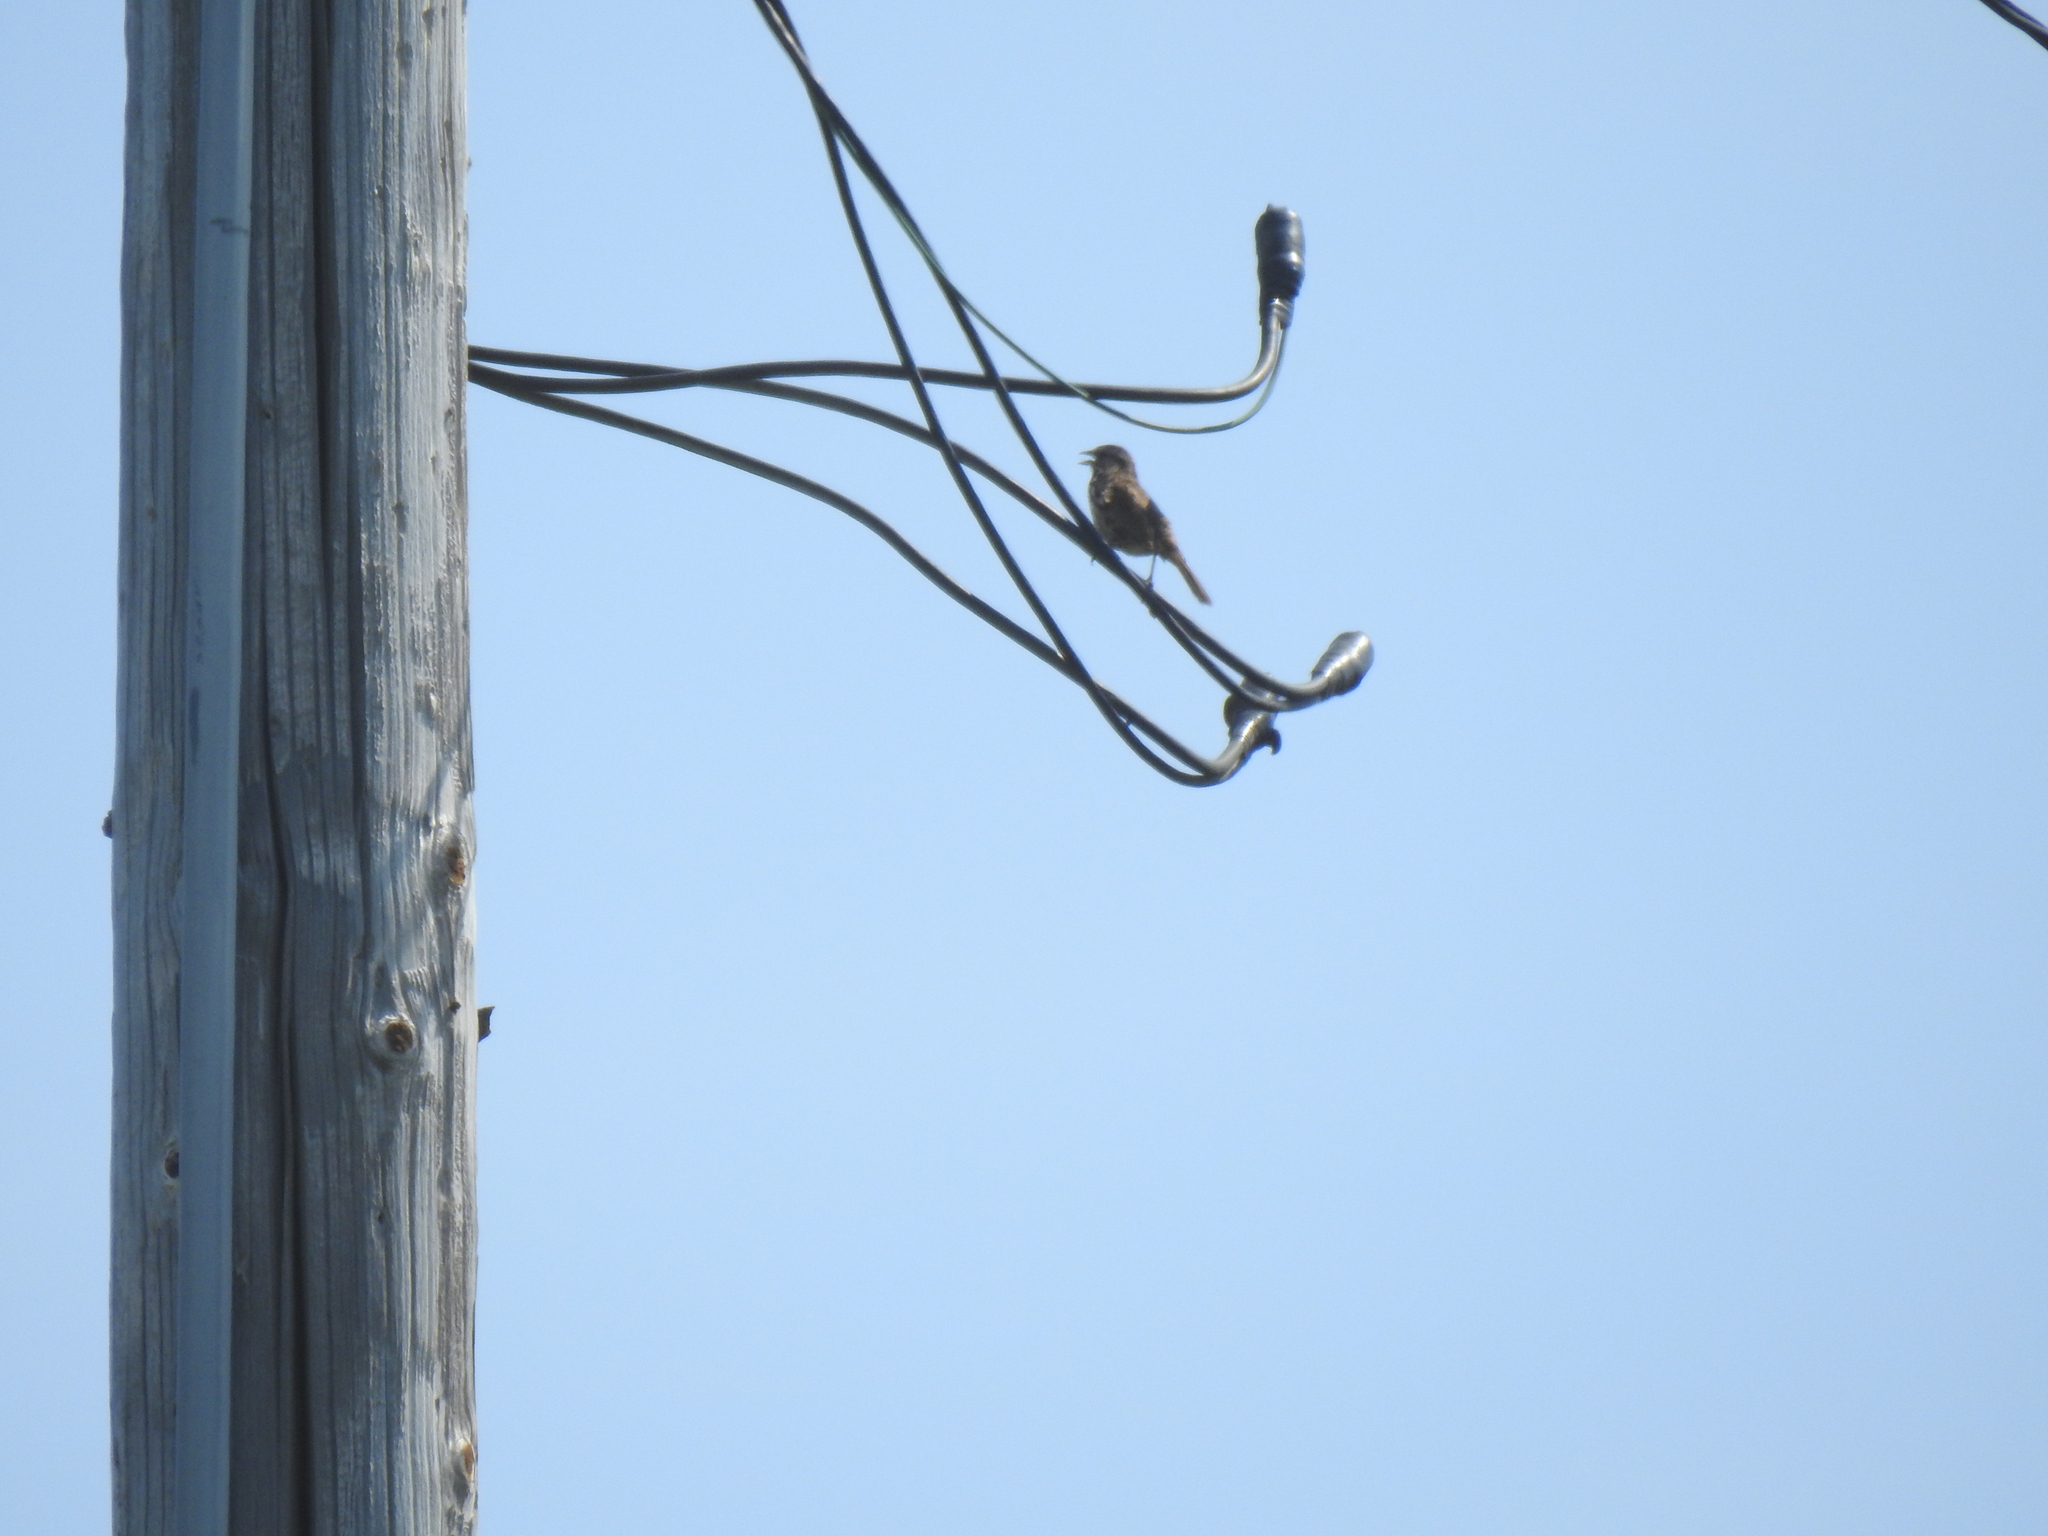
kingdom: Animalia
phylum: Chordata
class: Aves
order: Passeriformes
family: Passerellidae
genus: Melospiza
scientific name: Melospiza melodia
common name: Song sparrow
